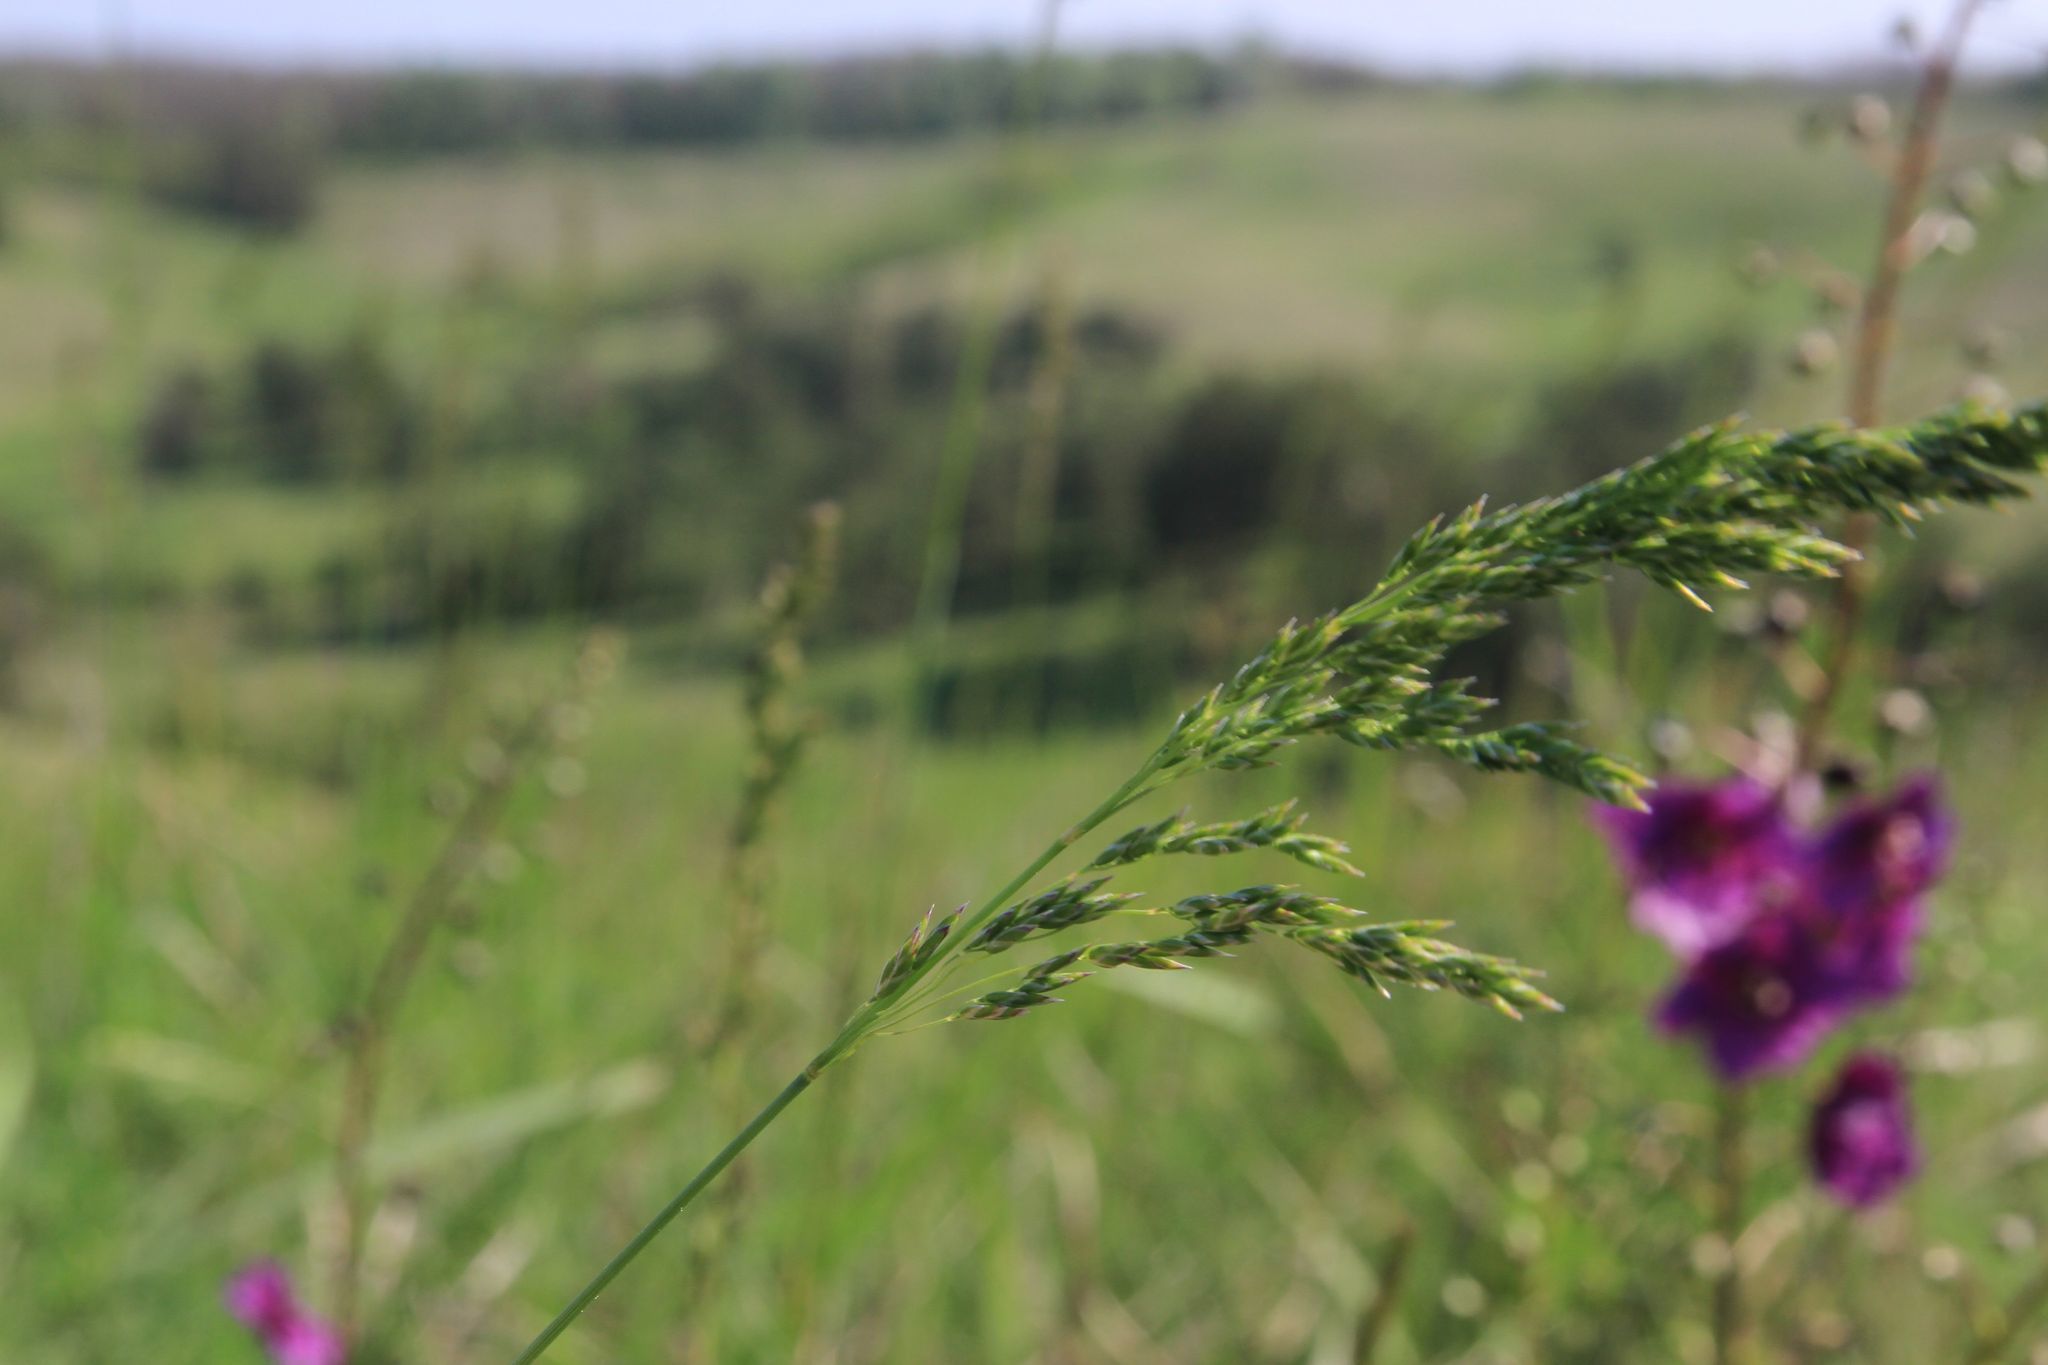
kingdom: Plantae
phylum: Tracheophyta
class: Liliopsida
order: Poales
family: Poaceae
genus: Poa
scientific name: Poa angustifolia
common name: Narrow-leaved meadow-grass
